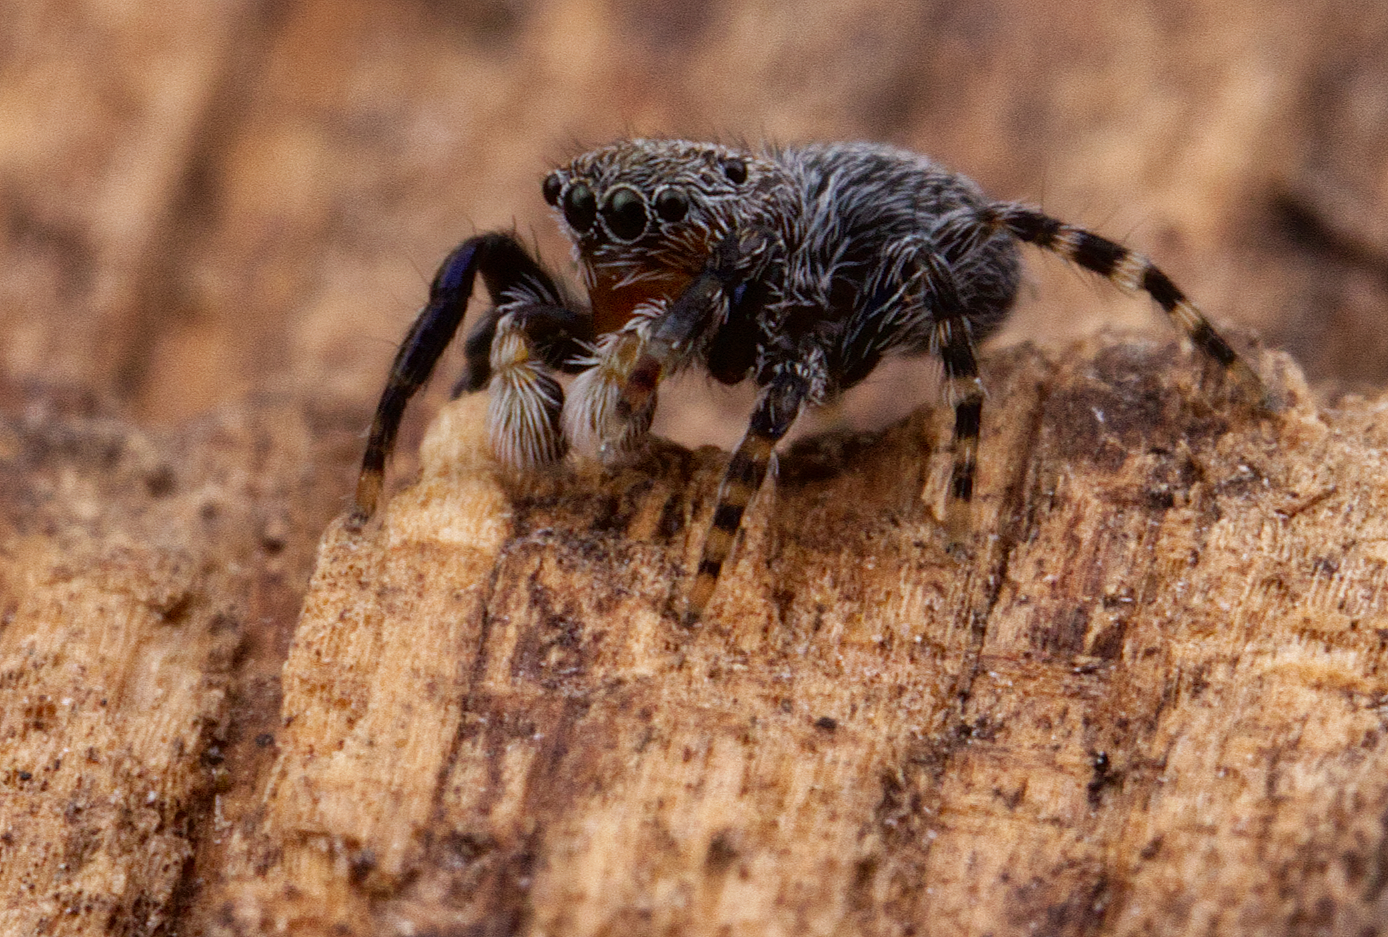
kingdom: Animalia
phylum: Arthropoda
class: Arachnida
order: Araneae
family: Salticidae
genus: Talavera
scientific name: Talavera minuta
